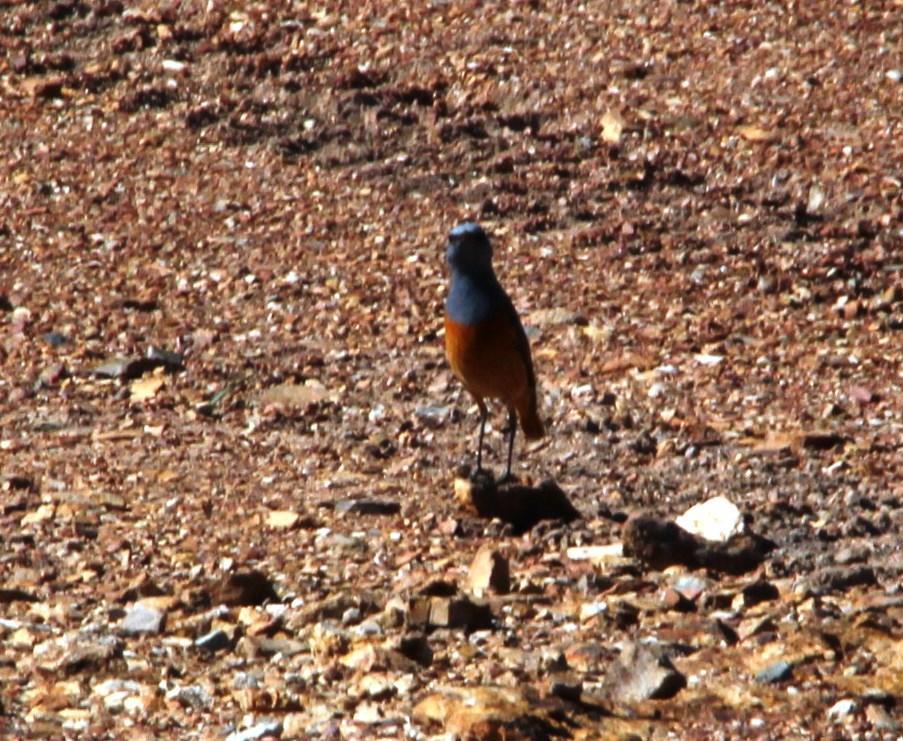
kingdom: Animalia
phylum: Chordata
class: Aves
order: Passeriformes
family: Muscicapidae
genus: Monticola
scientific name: Monticola explorator
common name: Sentinel rock thrush
